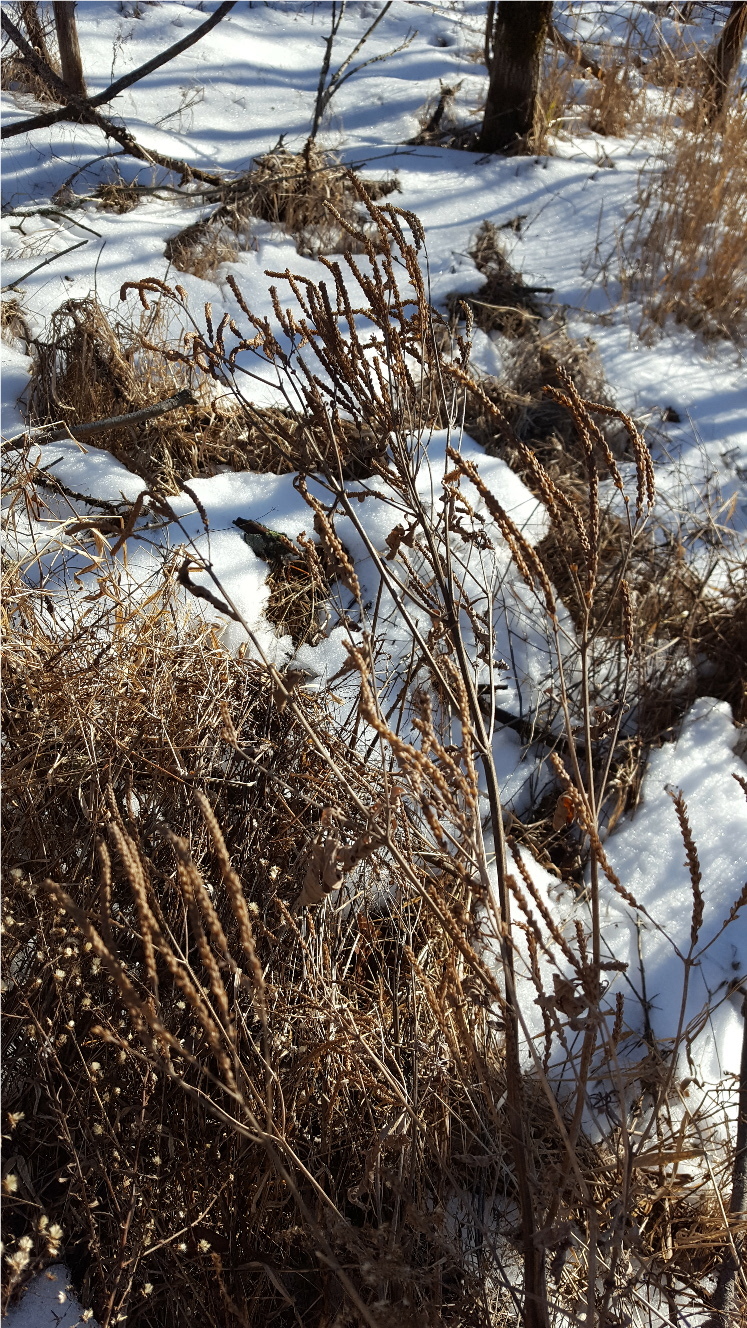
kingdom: Plantae
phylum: Tracheophyta
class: Magnoliopsida
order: Lamiales
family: Verbenaceae
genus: Verbena
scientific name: Verbena hastata
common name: American blue vervain
